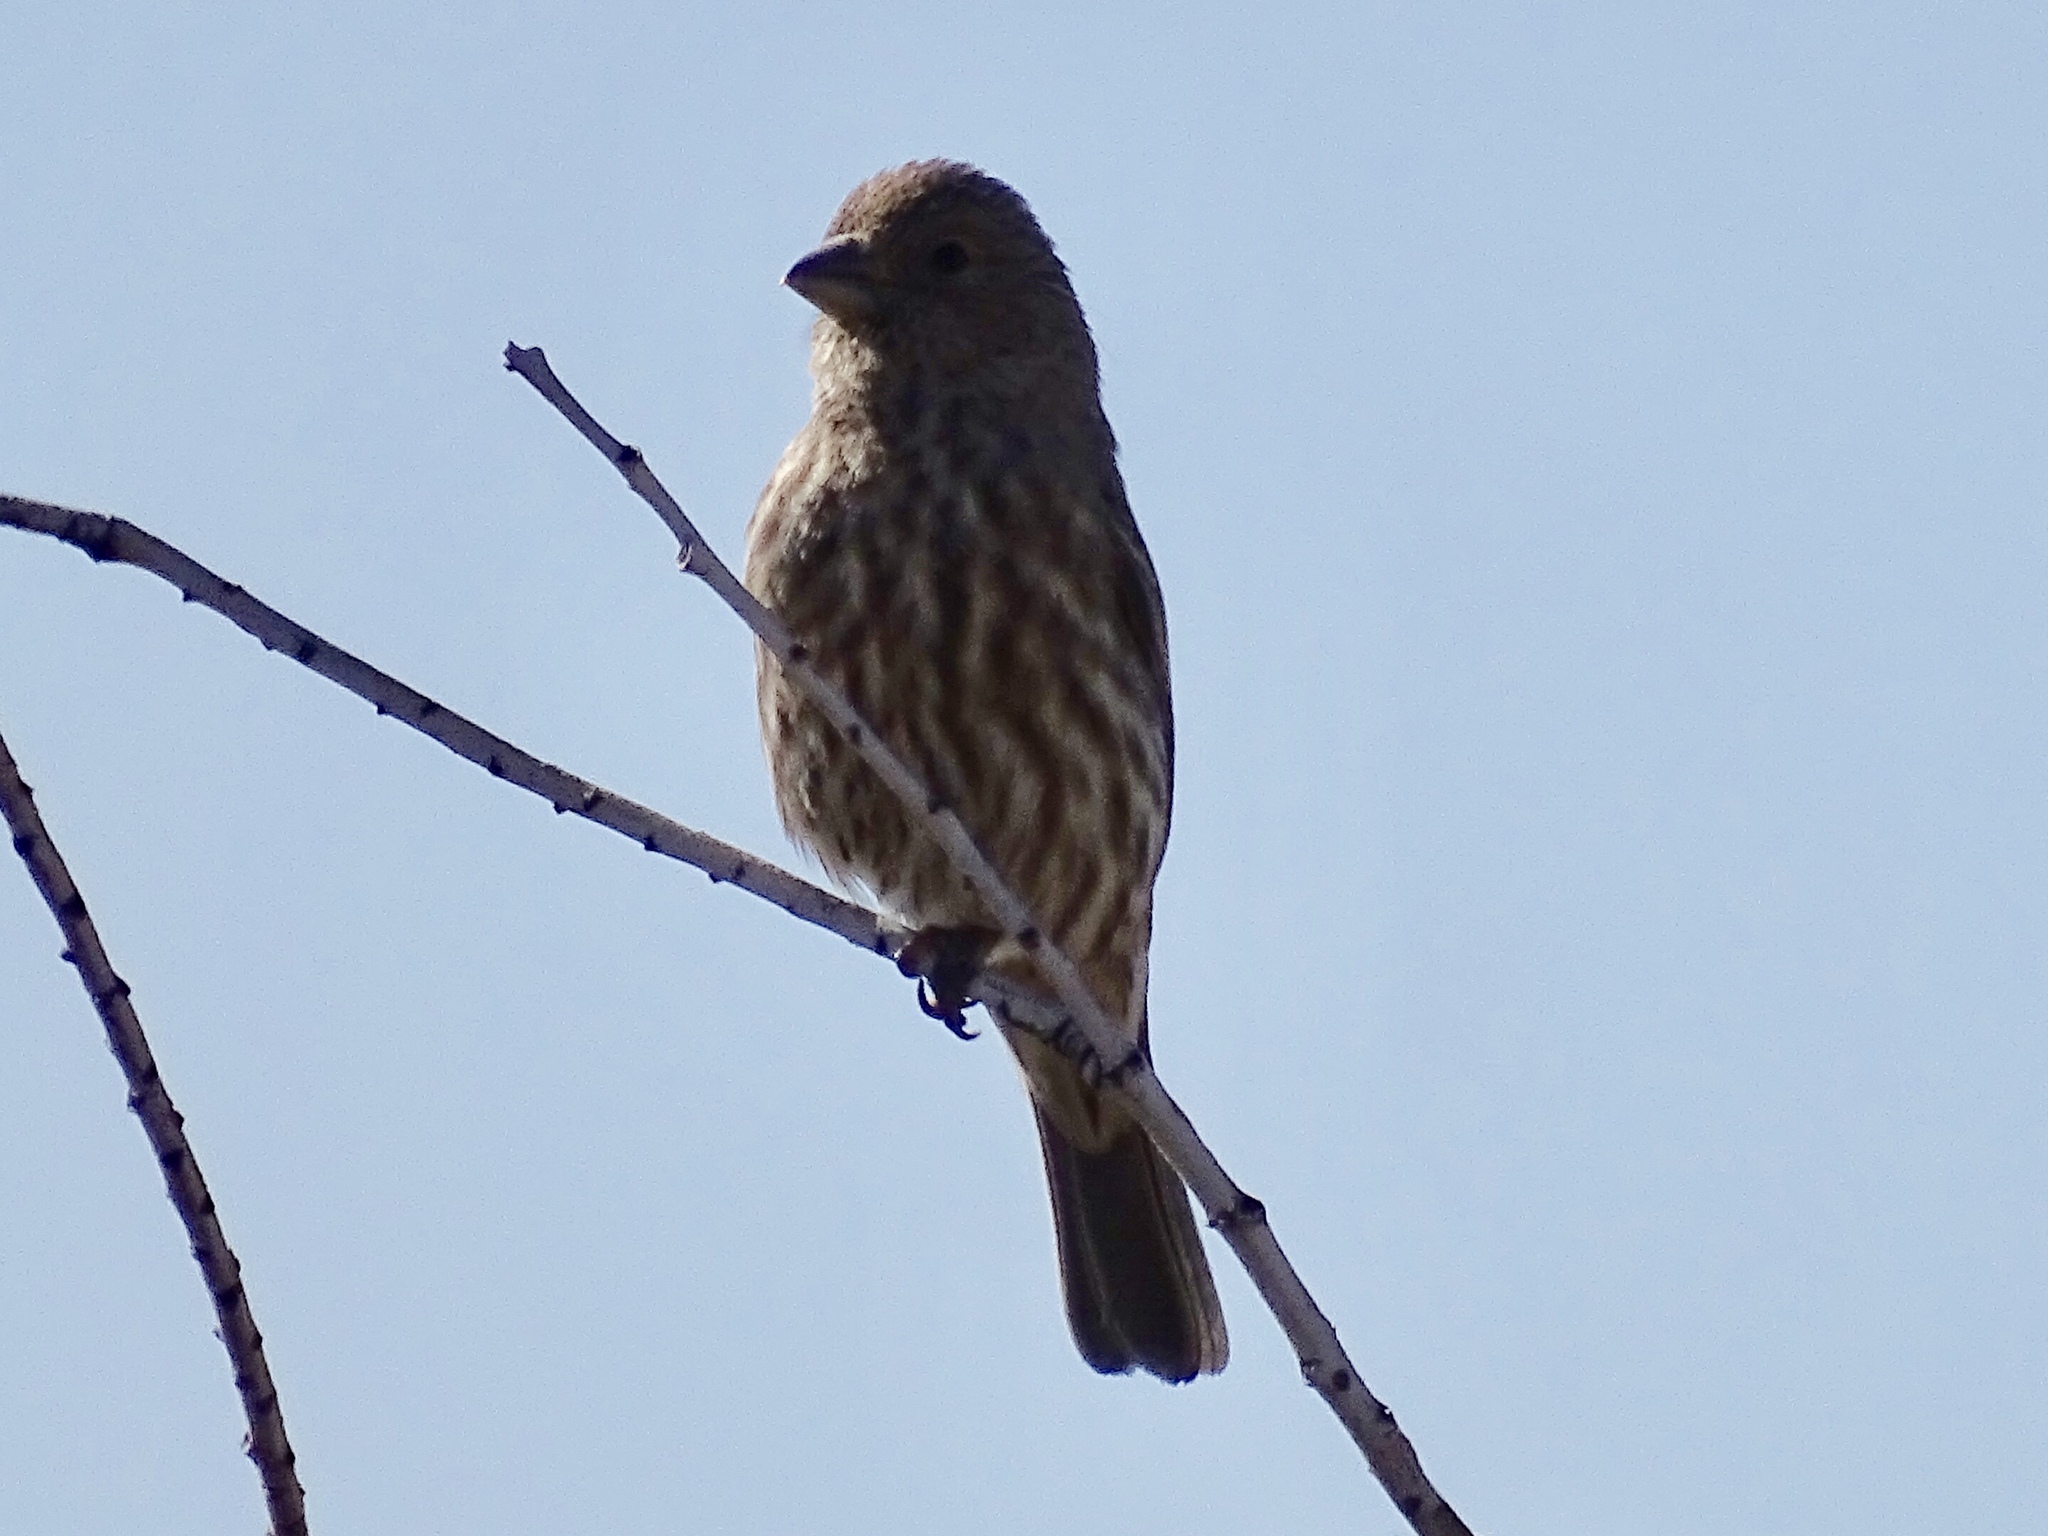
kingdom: Animalia
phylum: Chordata
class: Aves
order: Passeriformes
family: Fringillidae
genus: Haemorhous
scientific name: Haemorhous mexicanus
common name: House finch
